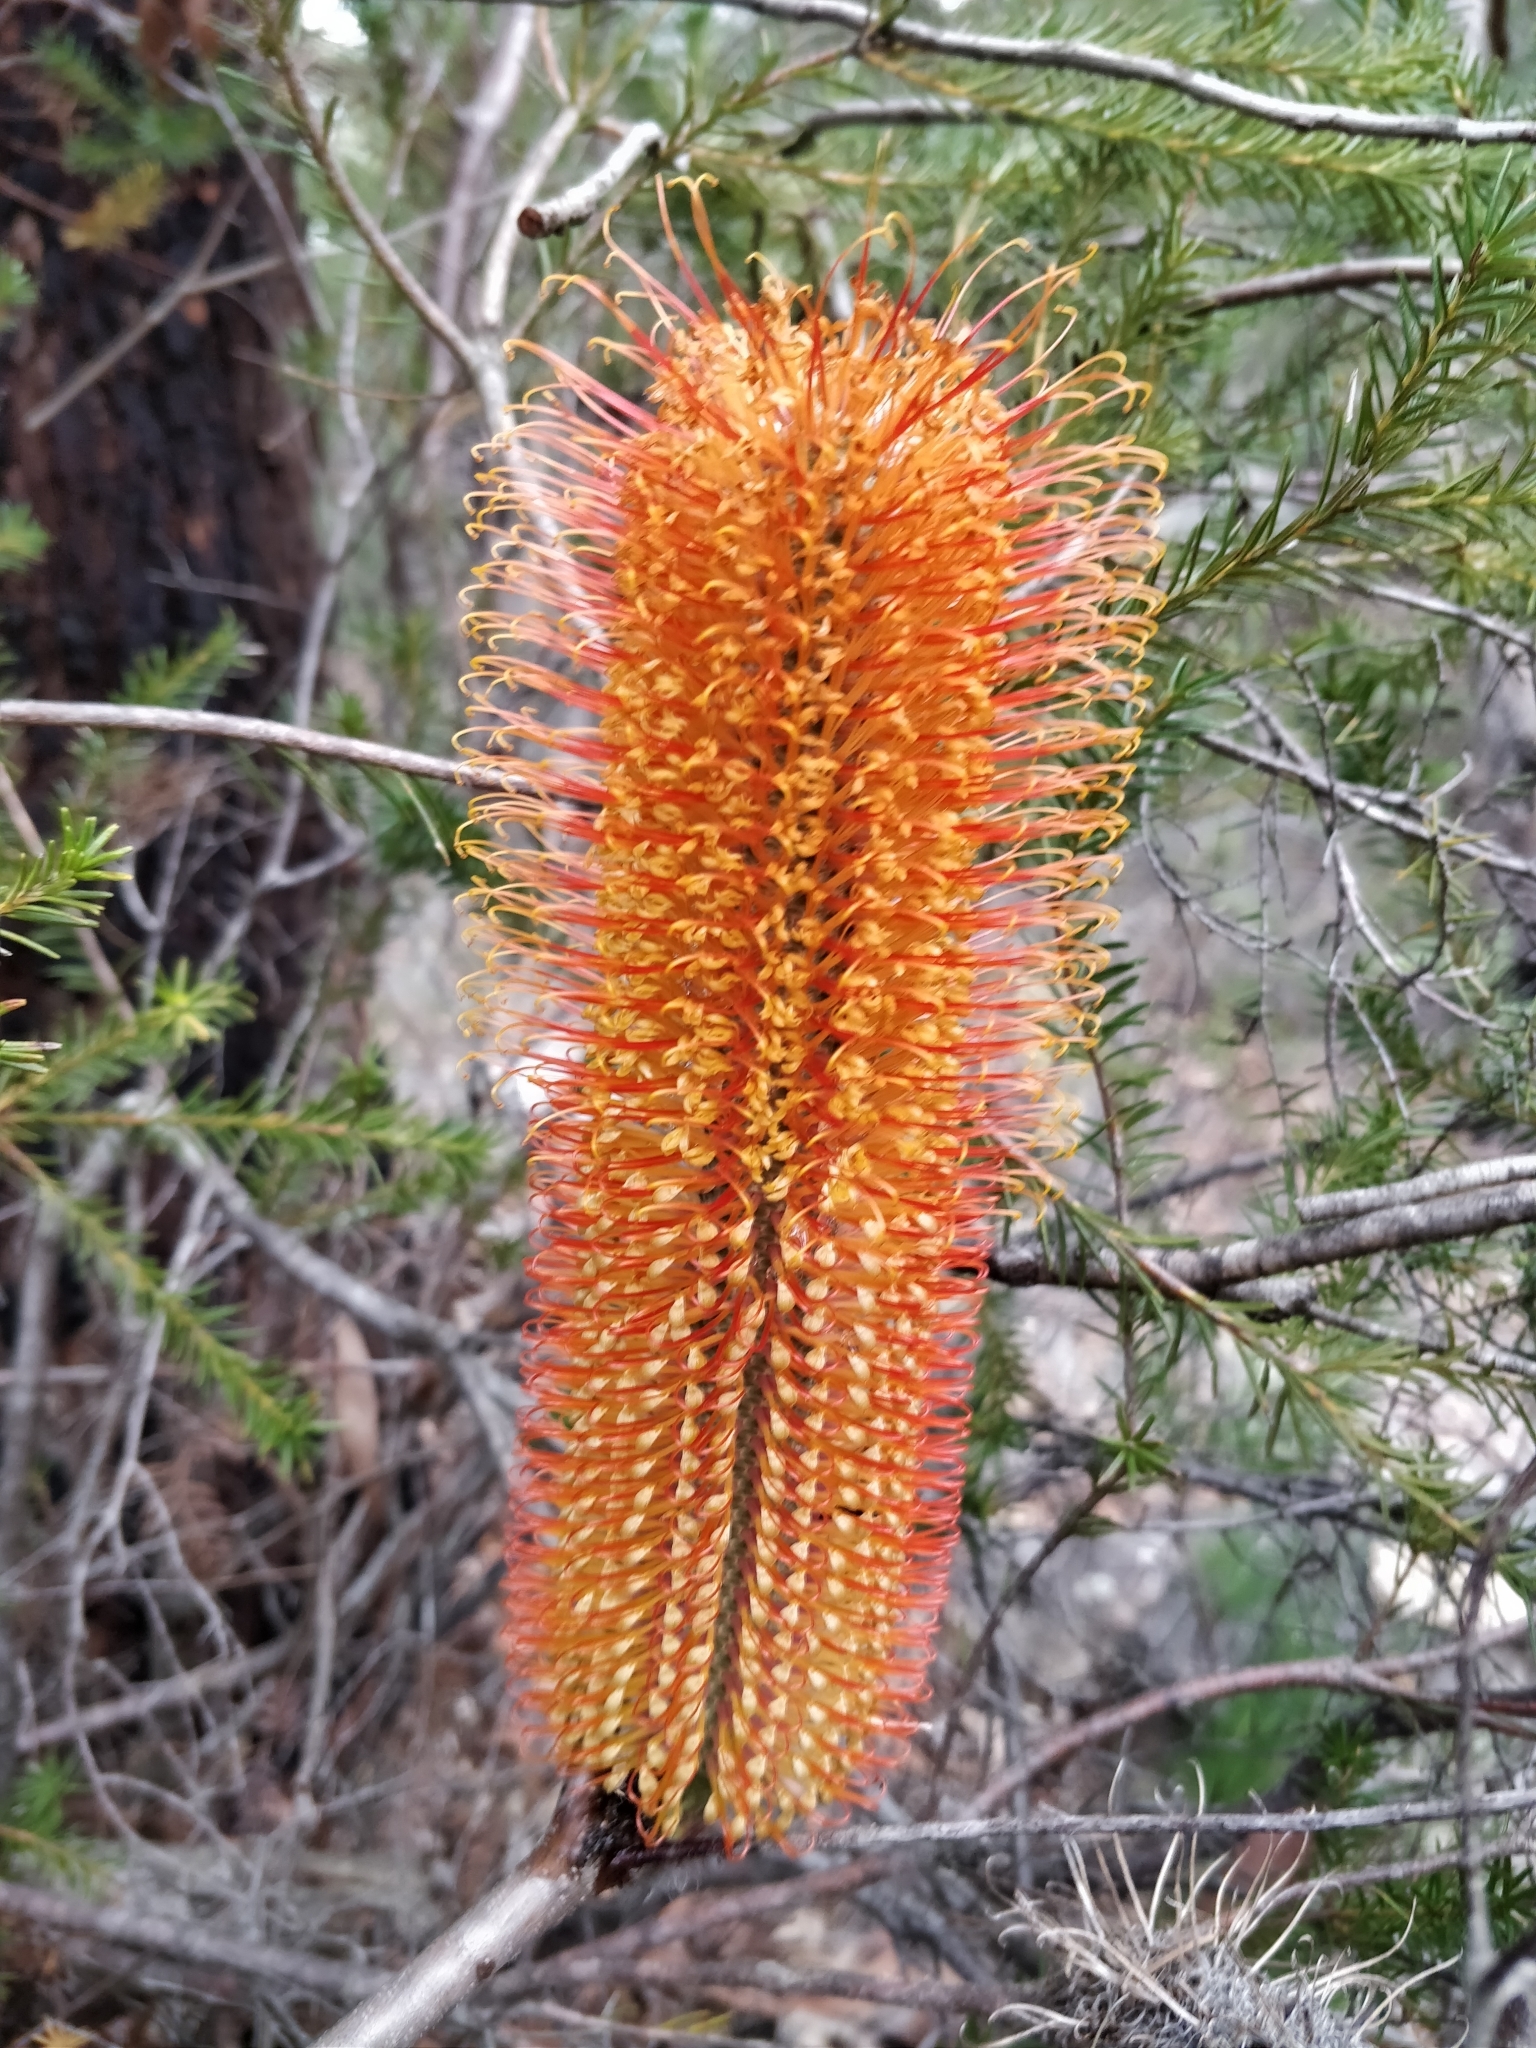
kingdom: Plantae
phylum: Tracheophyta
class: Magnoliopsida
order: Proteales
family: Proteaceae
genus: Banksia
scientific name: Banksia ericifolia
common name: Heath-leaf banksia
